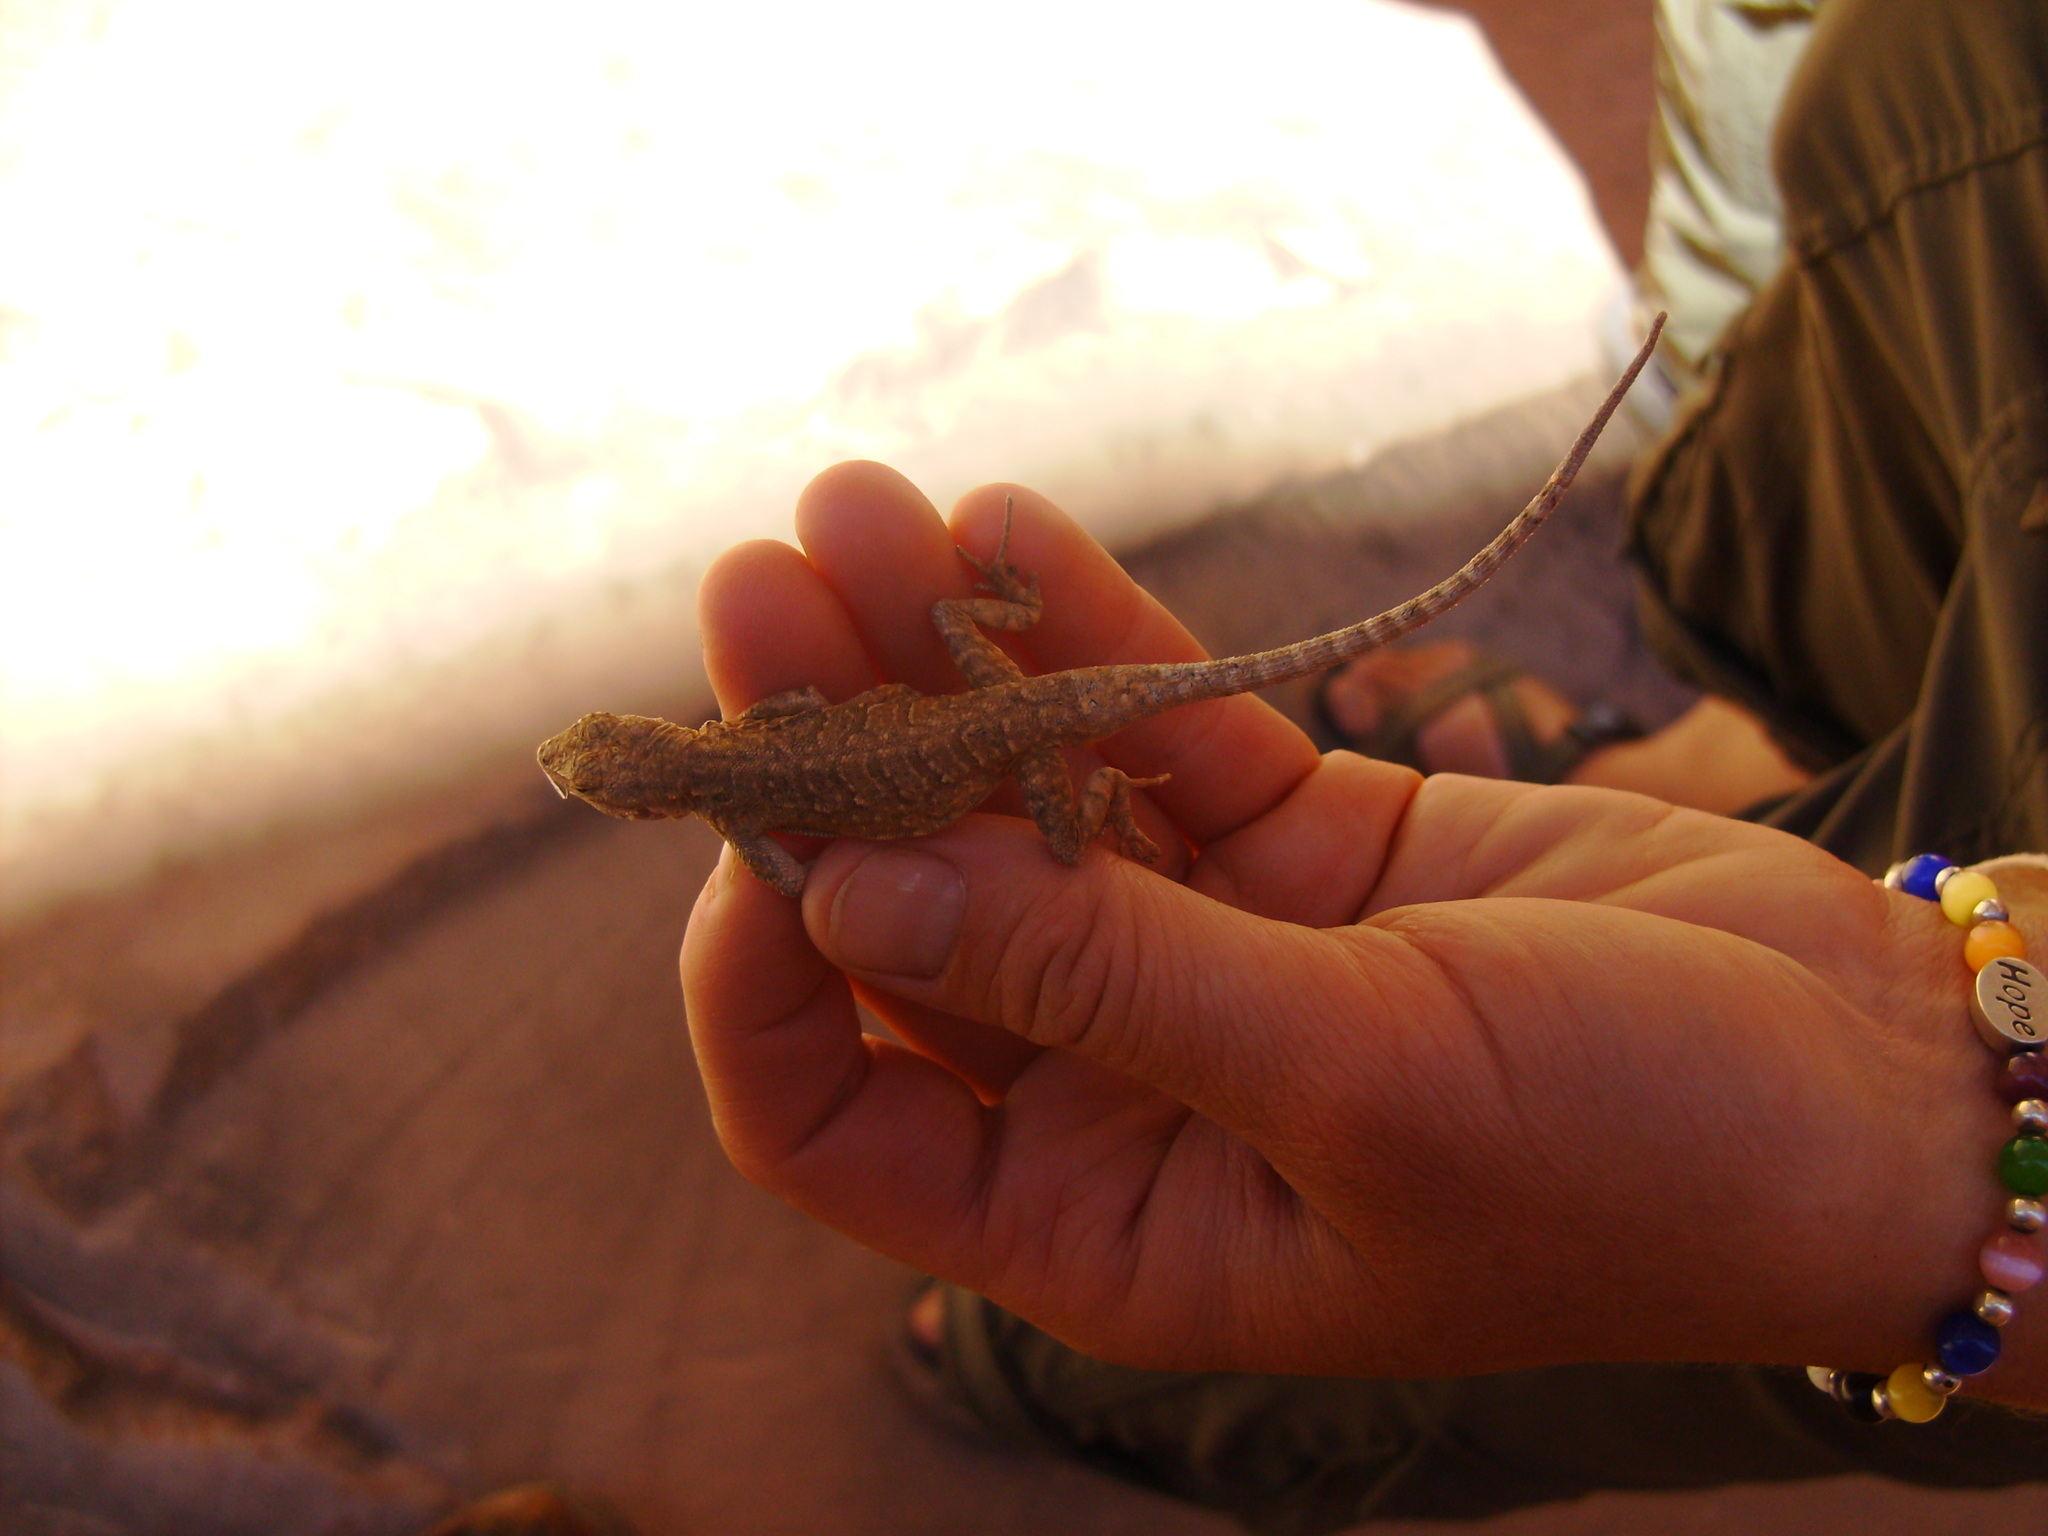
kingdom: Animalia
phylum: Chordata
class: Squamata
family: Phrynosomatidae
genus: Urosaurus
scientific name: Urosaurus ornatus
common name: Ornate tree lizard
